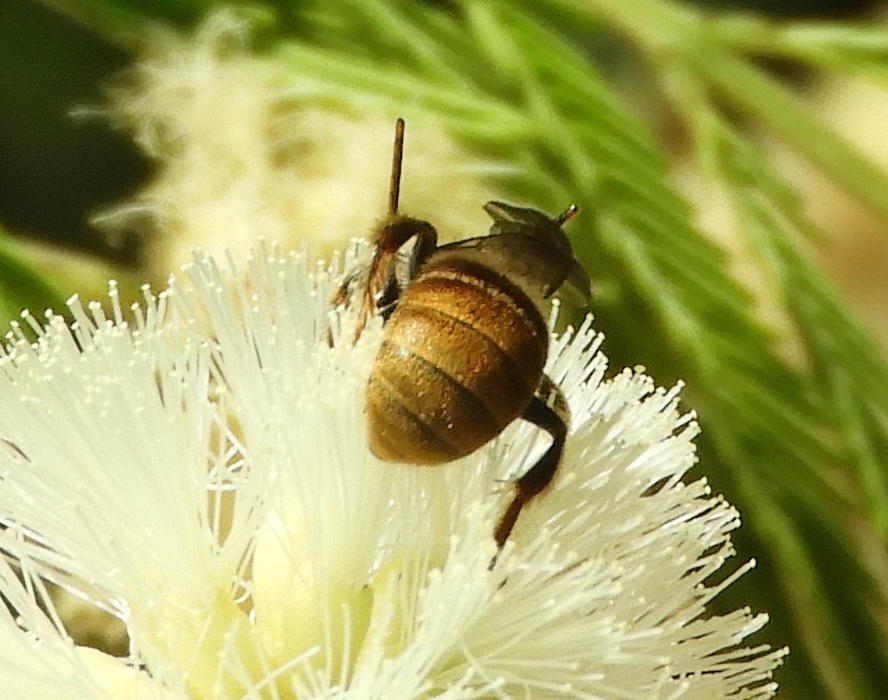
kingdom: Animalia
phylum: Arthropoda
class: Insecta
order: Hymenoptera
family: Apidae
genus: Apidae
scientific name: Apidae
